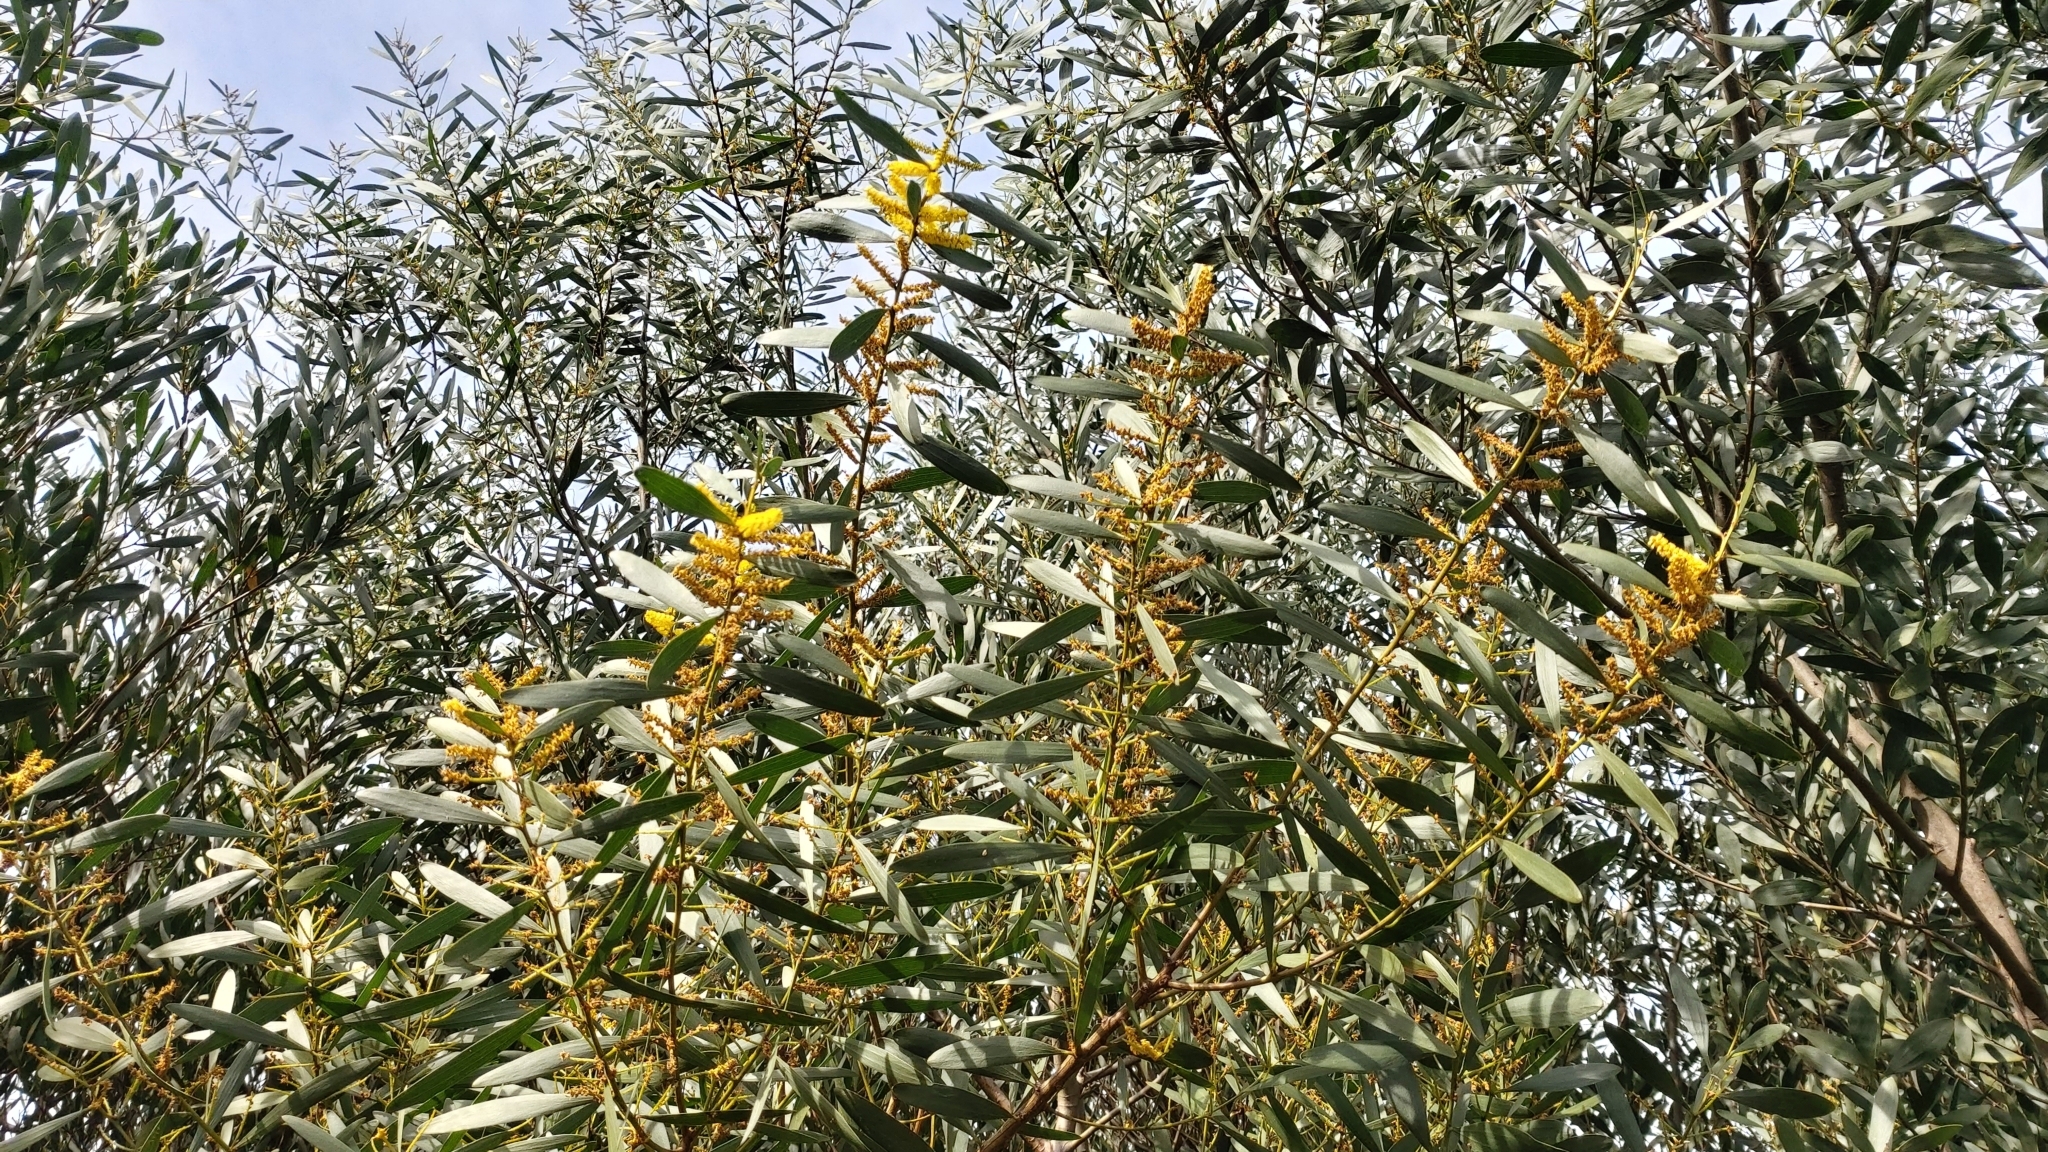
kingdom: Plantae
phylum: Tracheophyta
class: Magnoliopsida
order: Fabales
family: Fabaceae
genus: Acacia
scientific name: Acacia longifolia
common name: Sydney golden wattle
